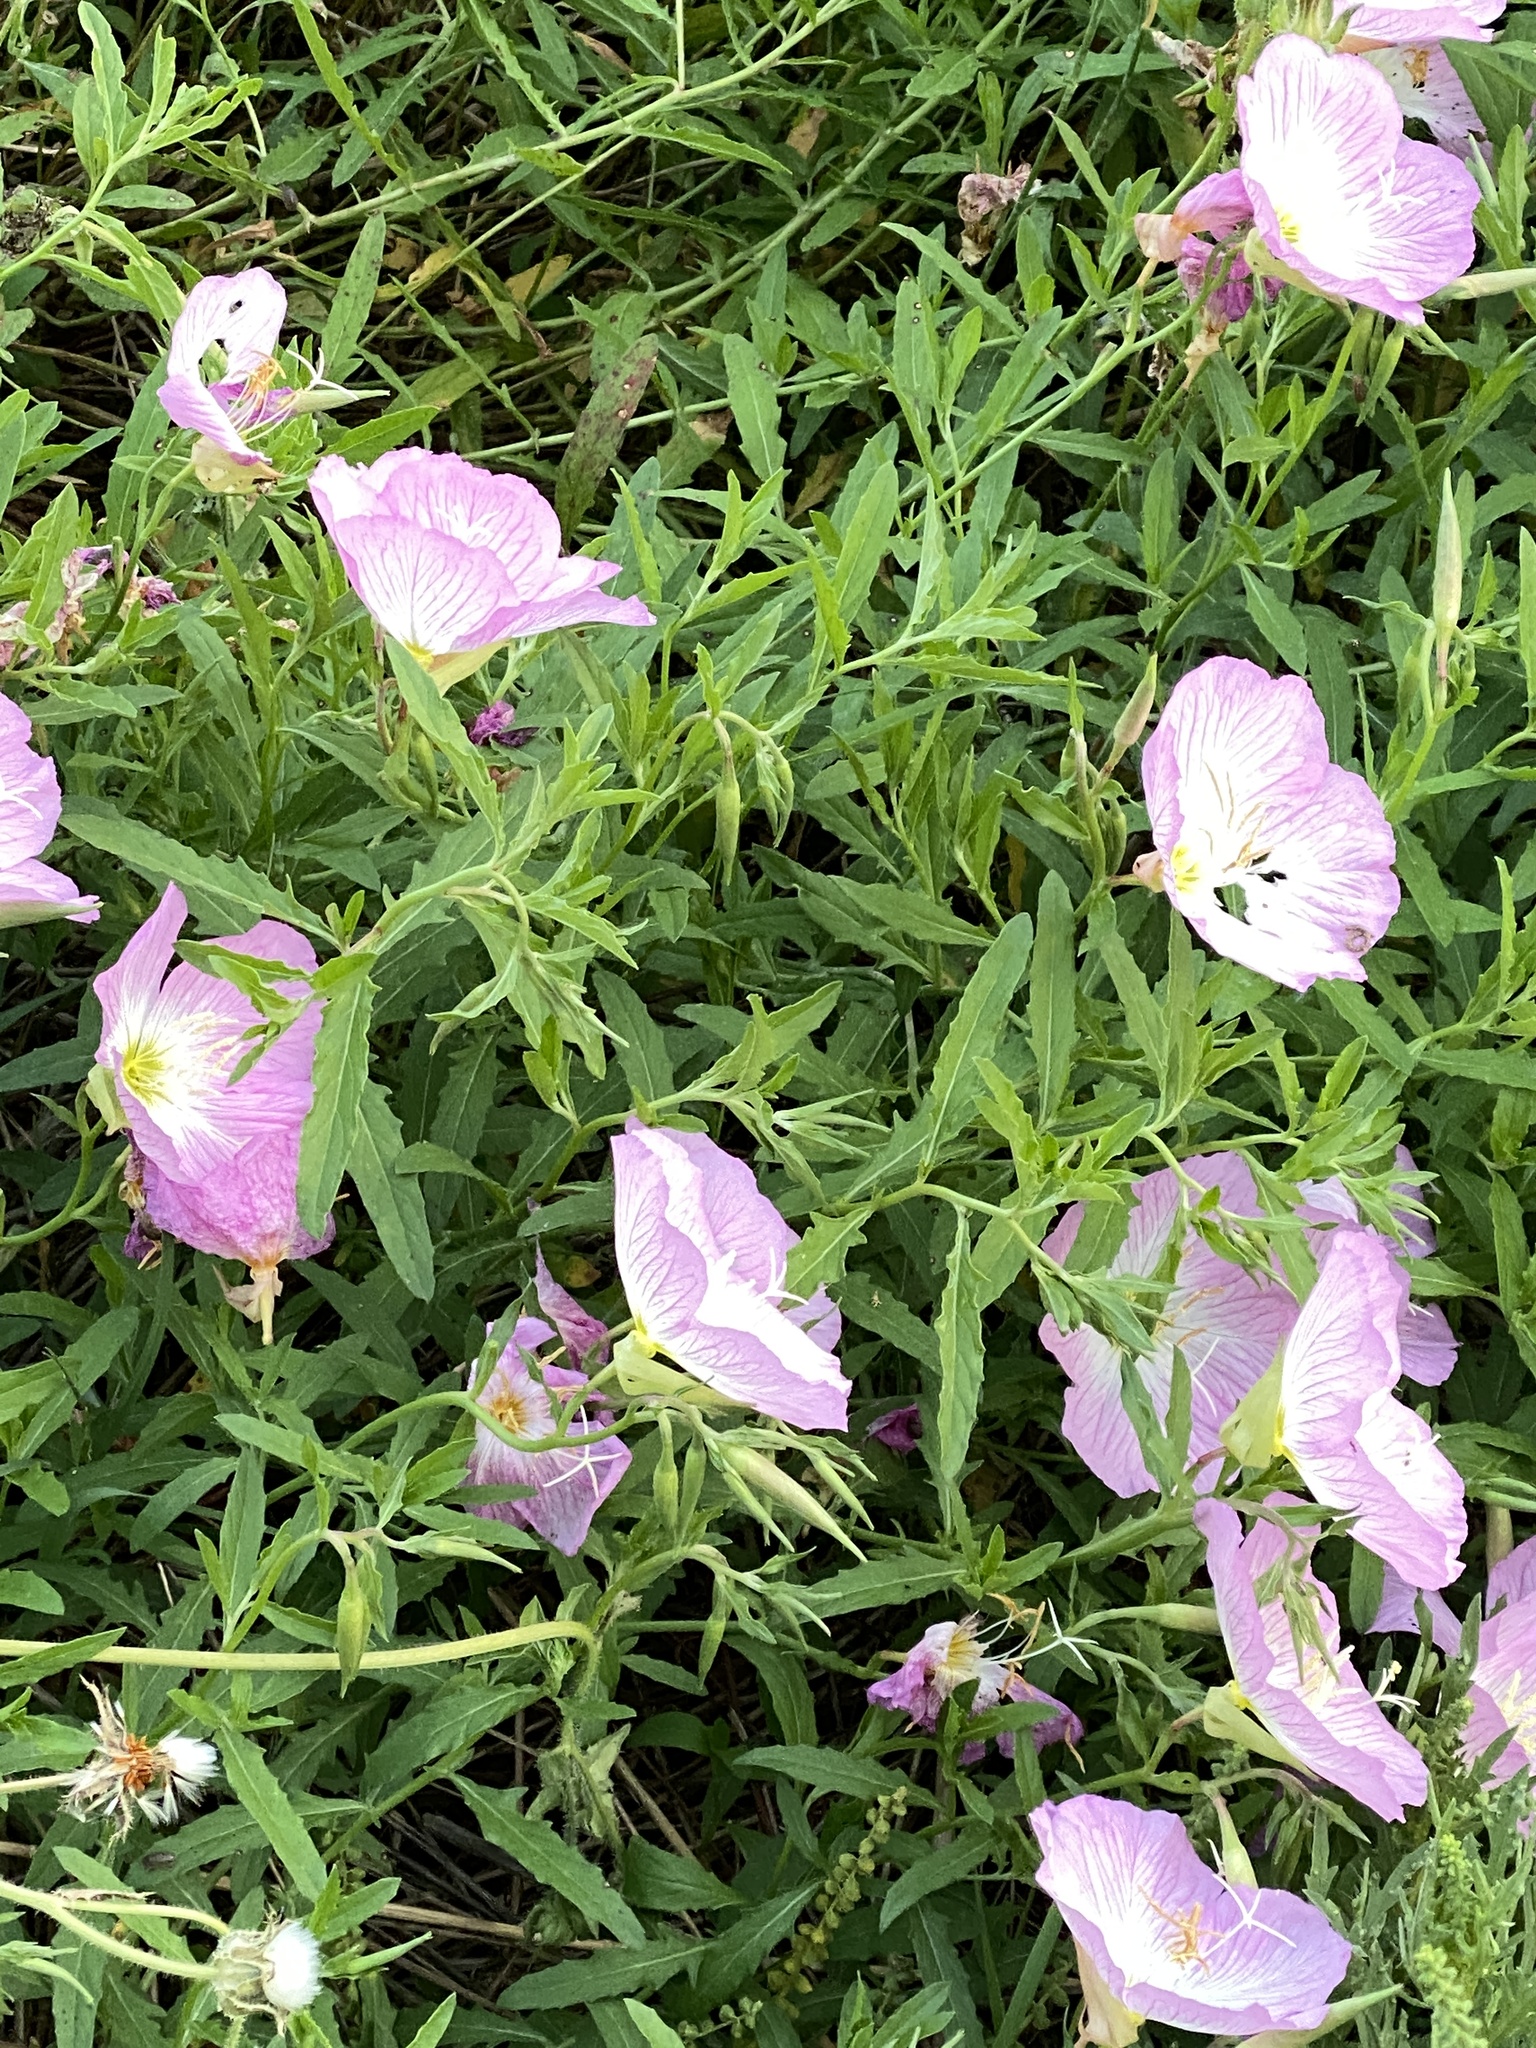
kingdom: Plantae
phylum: Tracheophyta
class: Magnoliopsida
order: Myrtales
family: Onagraceae
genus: Oenothera
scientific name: Oenothera speciosa
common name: White evening-primrose
